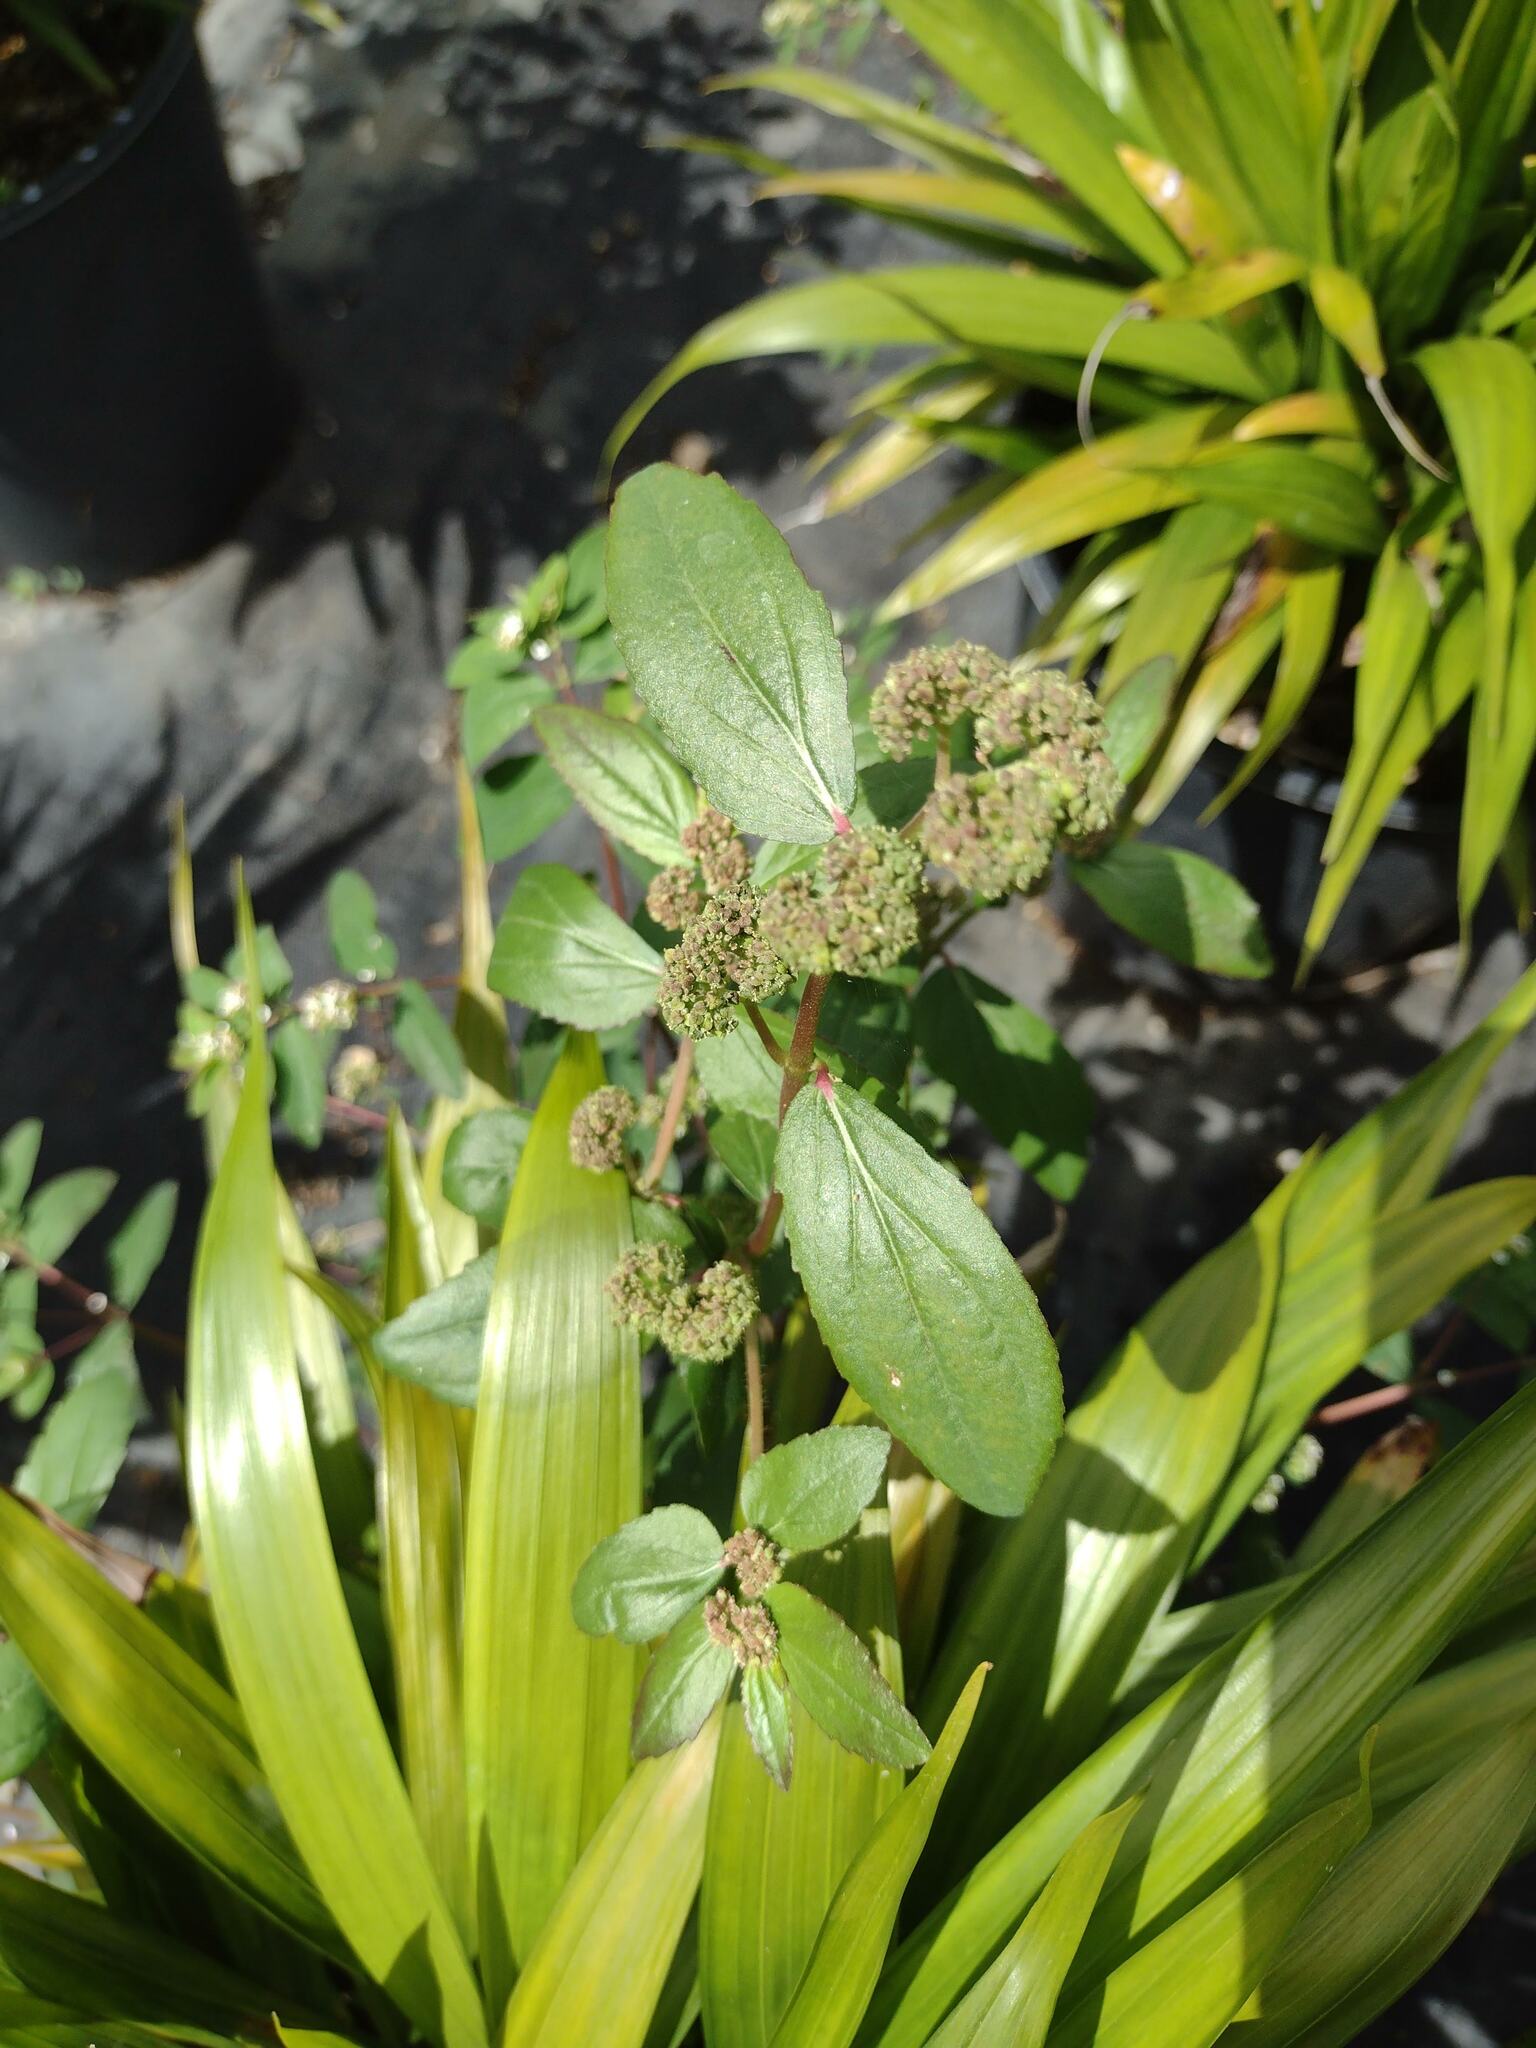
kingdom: Plantae
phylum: Tracheophyta
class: Magnoliopsida
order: Malpighiales
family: Euphorbiaceae
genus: Euphorbia
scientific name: Euphorbia hirta
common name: Pillpod sandmat
